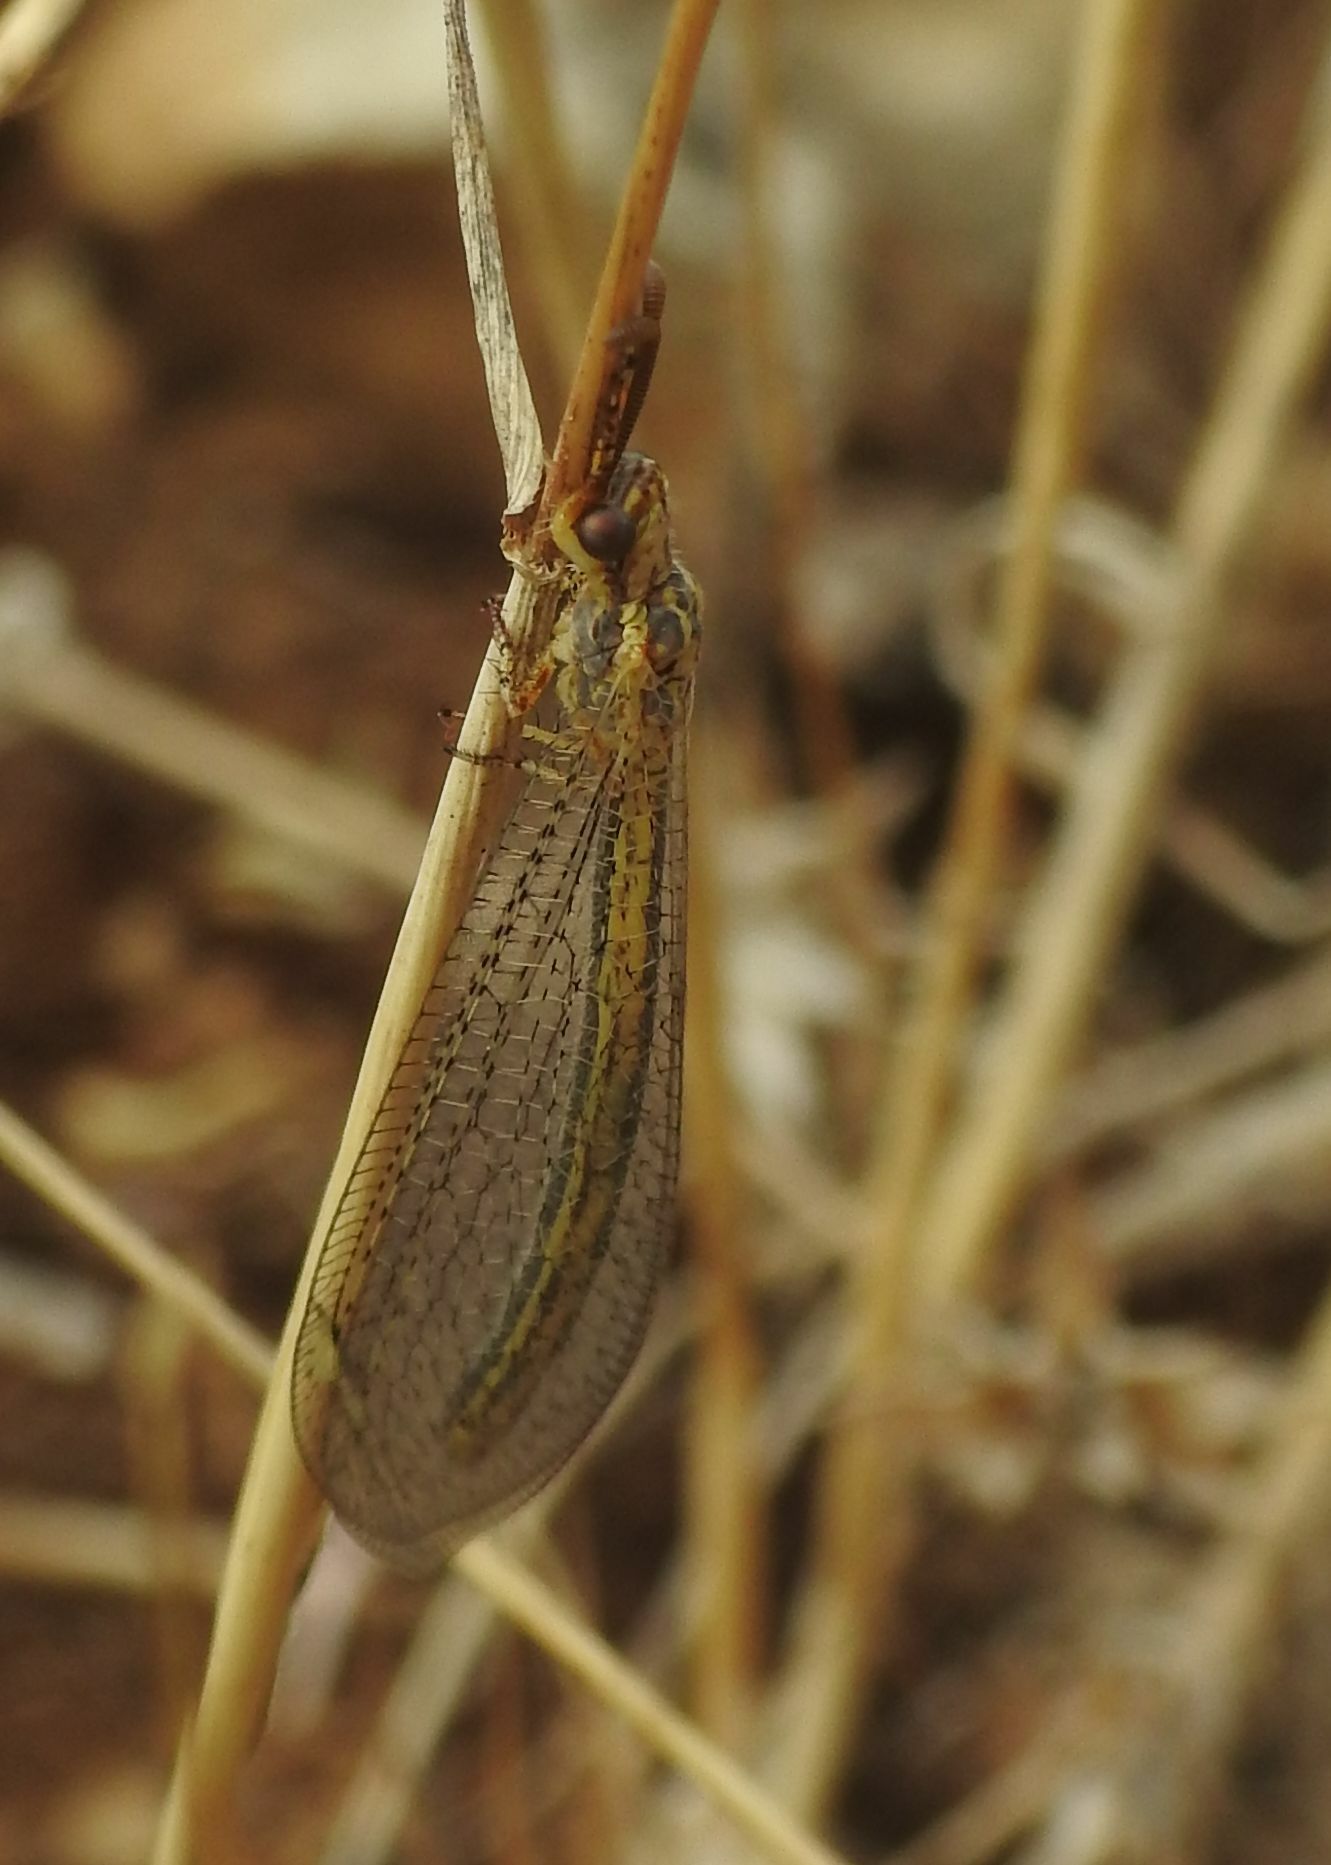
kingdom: Animalia
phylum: Arthropoda
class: Insecta
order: Neuroptera
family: Myrmeleontidae
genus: Macronemurus
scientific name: Macronemurus appendiculatus
